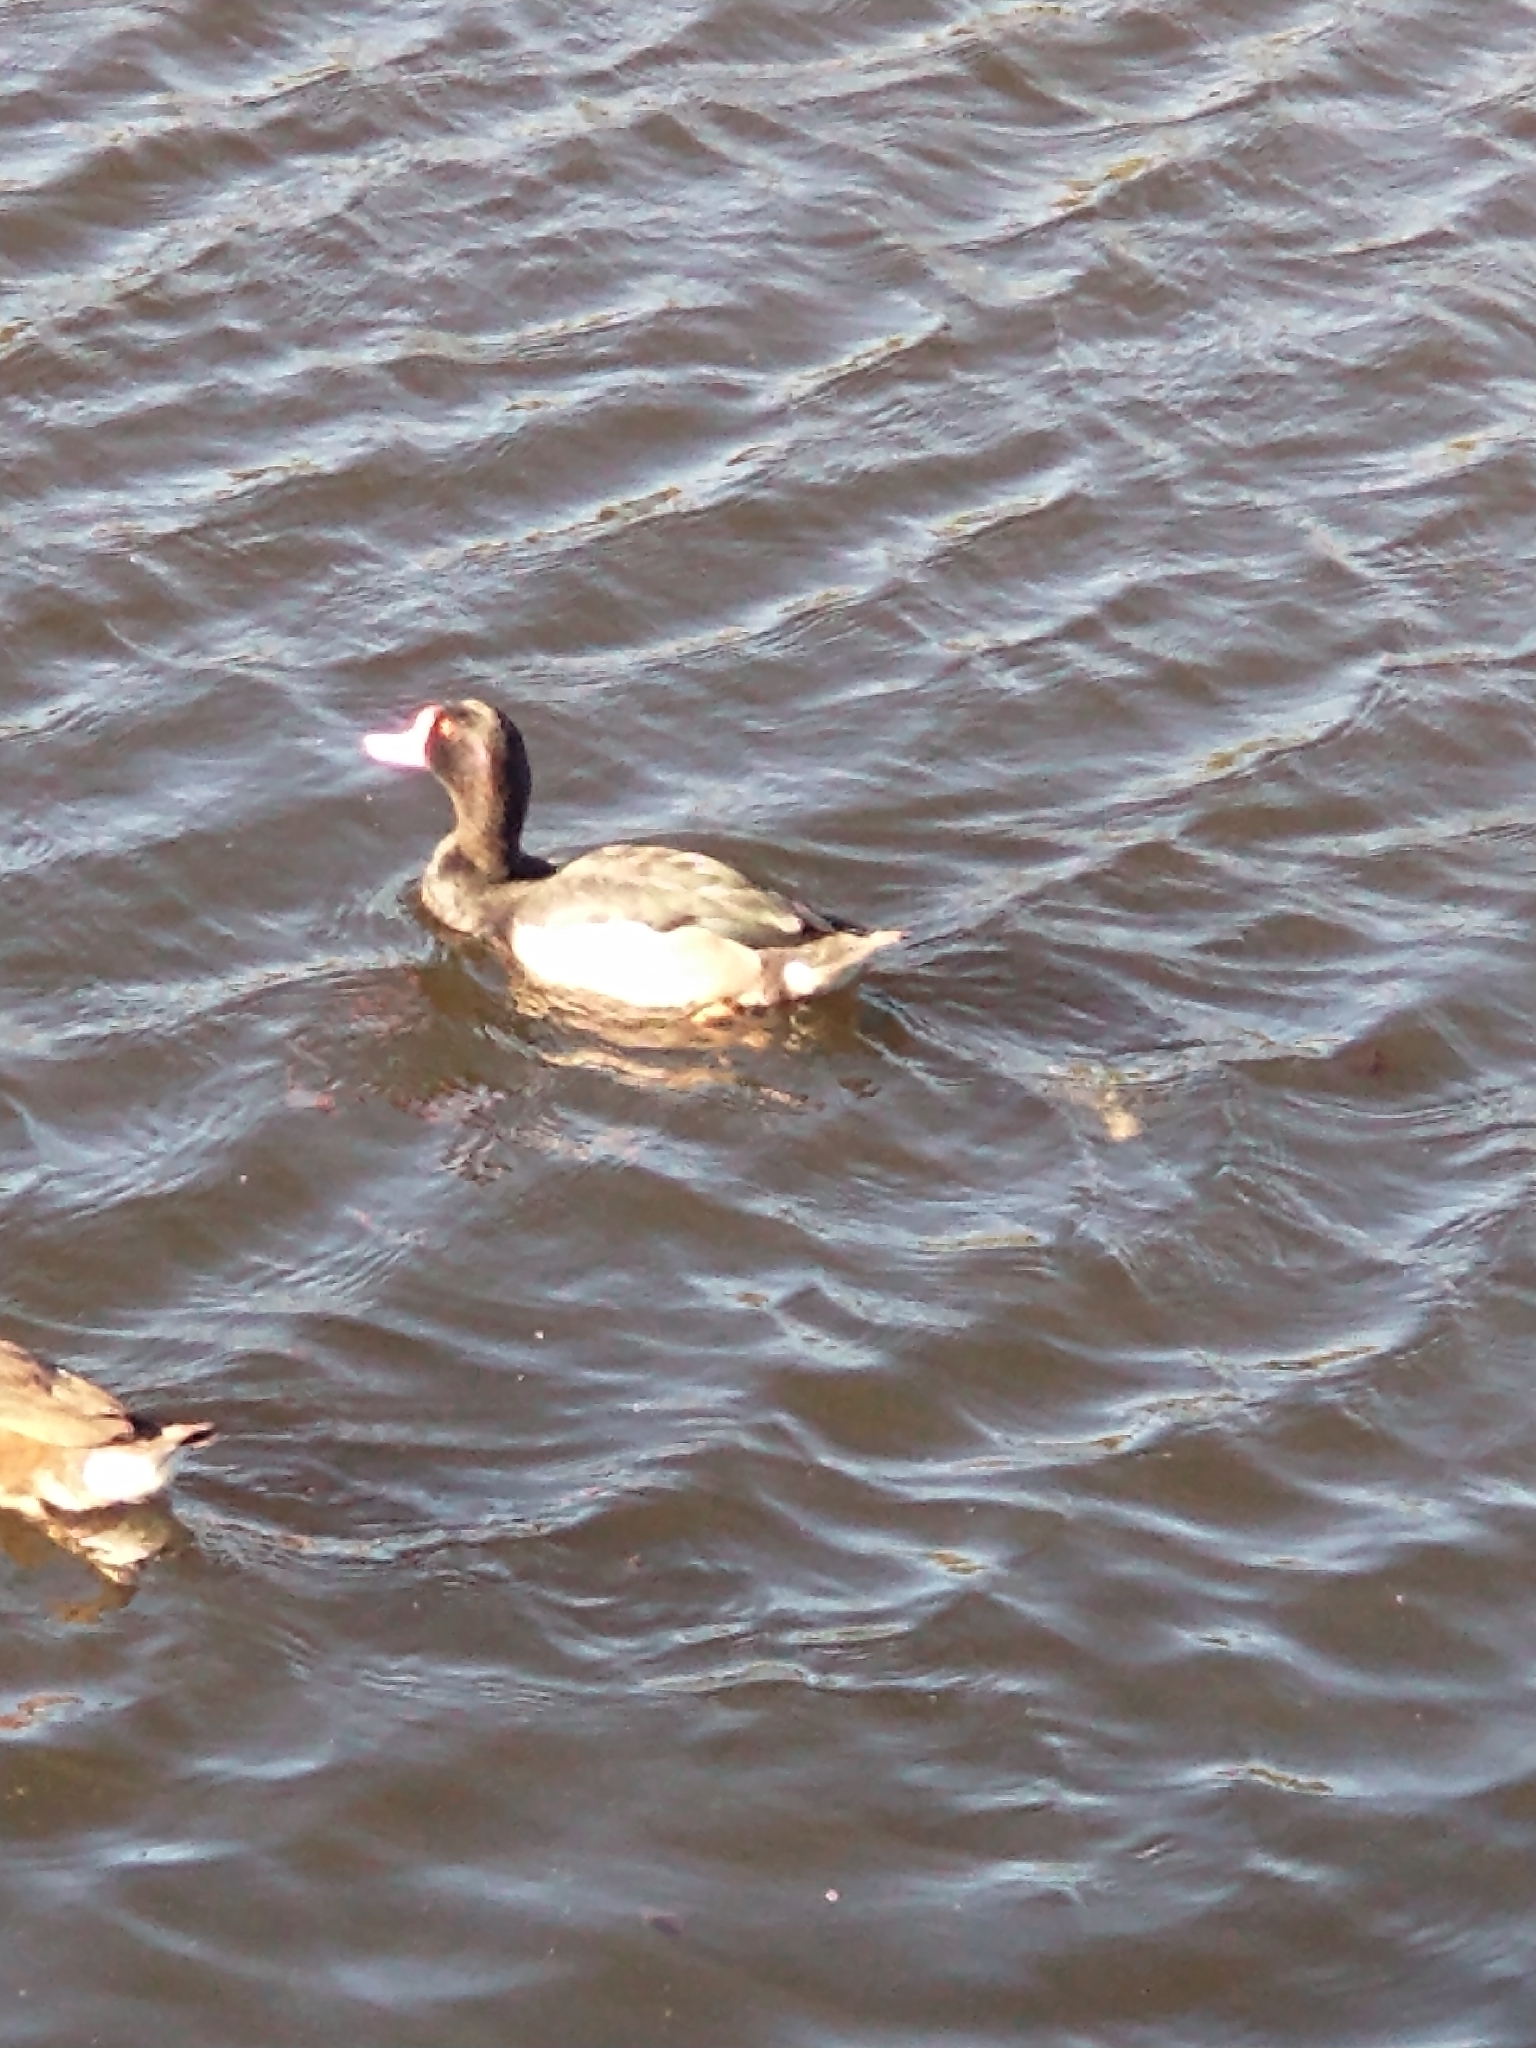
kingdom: Animalia
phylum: Chordata
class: Aves
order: Anseriformes
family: Anatidae
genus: Netta
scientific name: Netta peposaca
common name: Rosy-billed pochard
